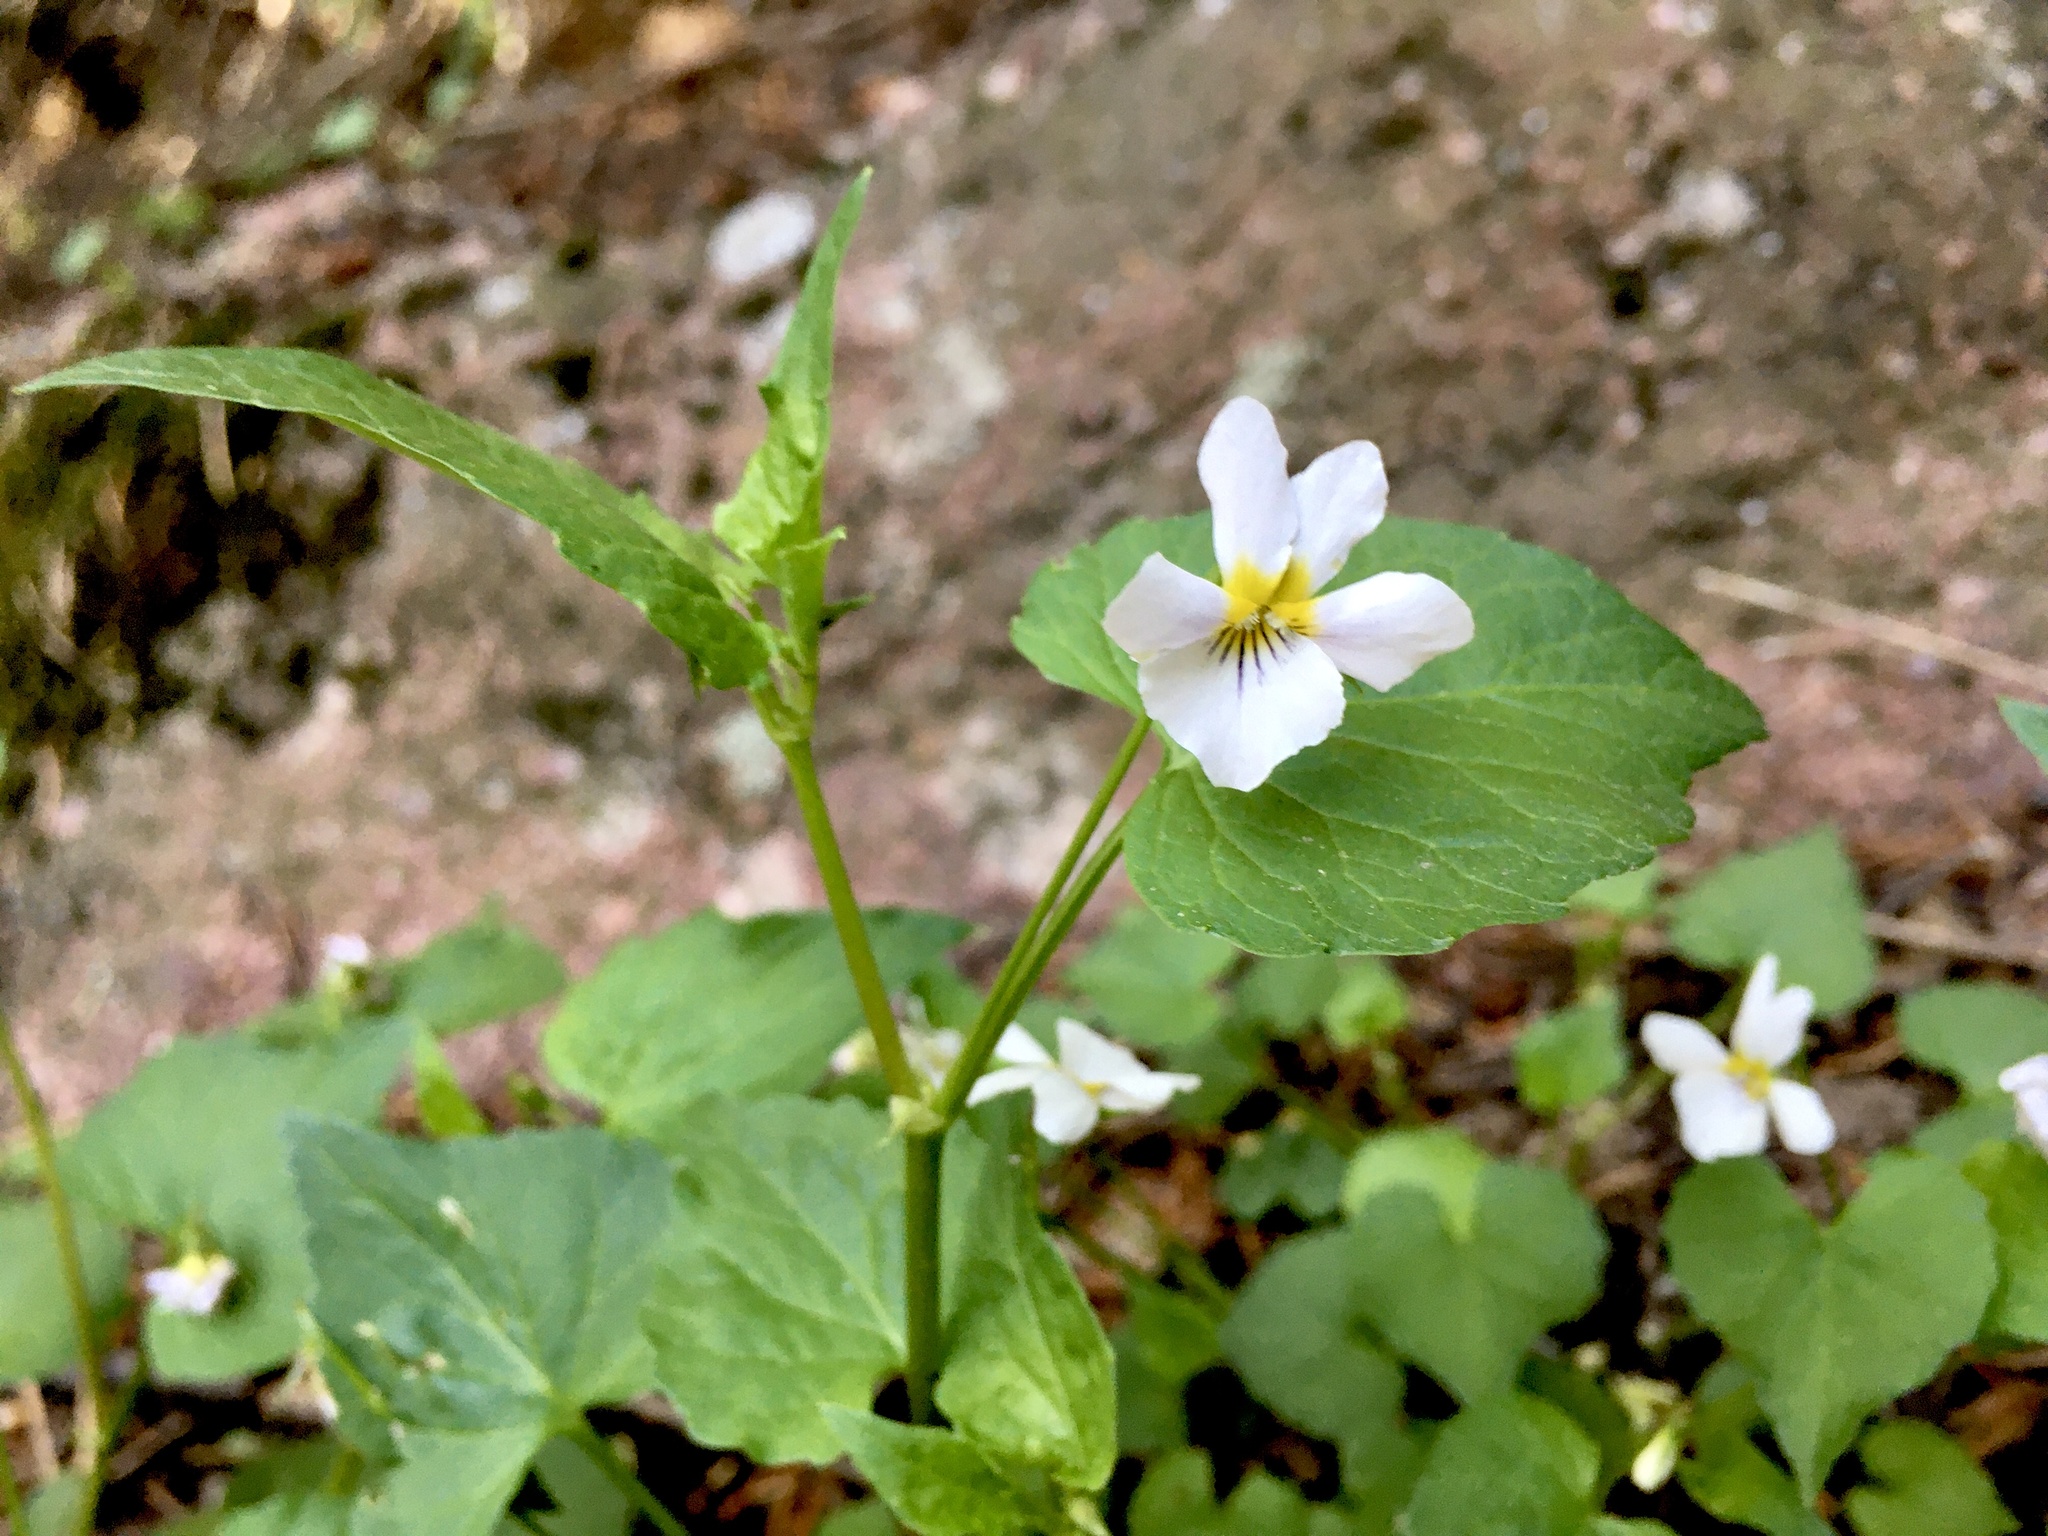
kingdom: Plantae
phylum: Tracheophyta
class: Magnoliopsida
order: Malpighiales
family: Violaceae
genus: Viola
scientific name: Viola canadensis
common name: Canada violet
